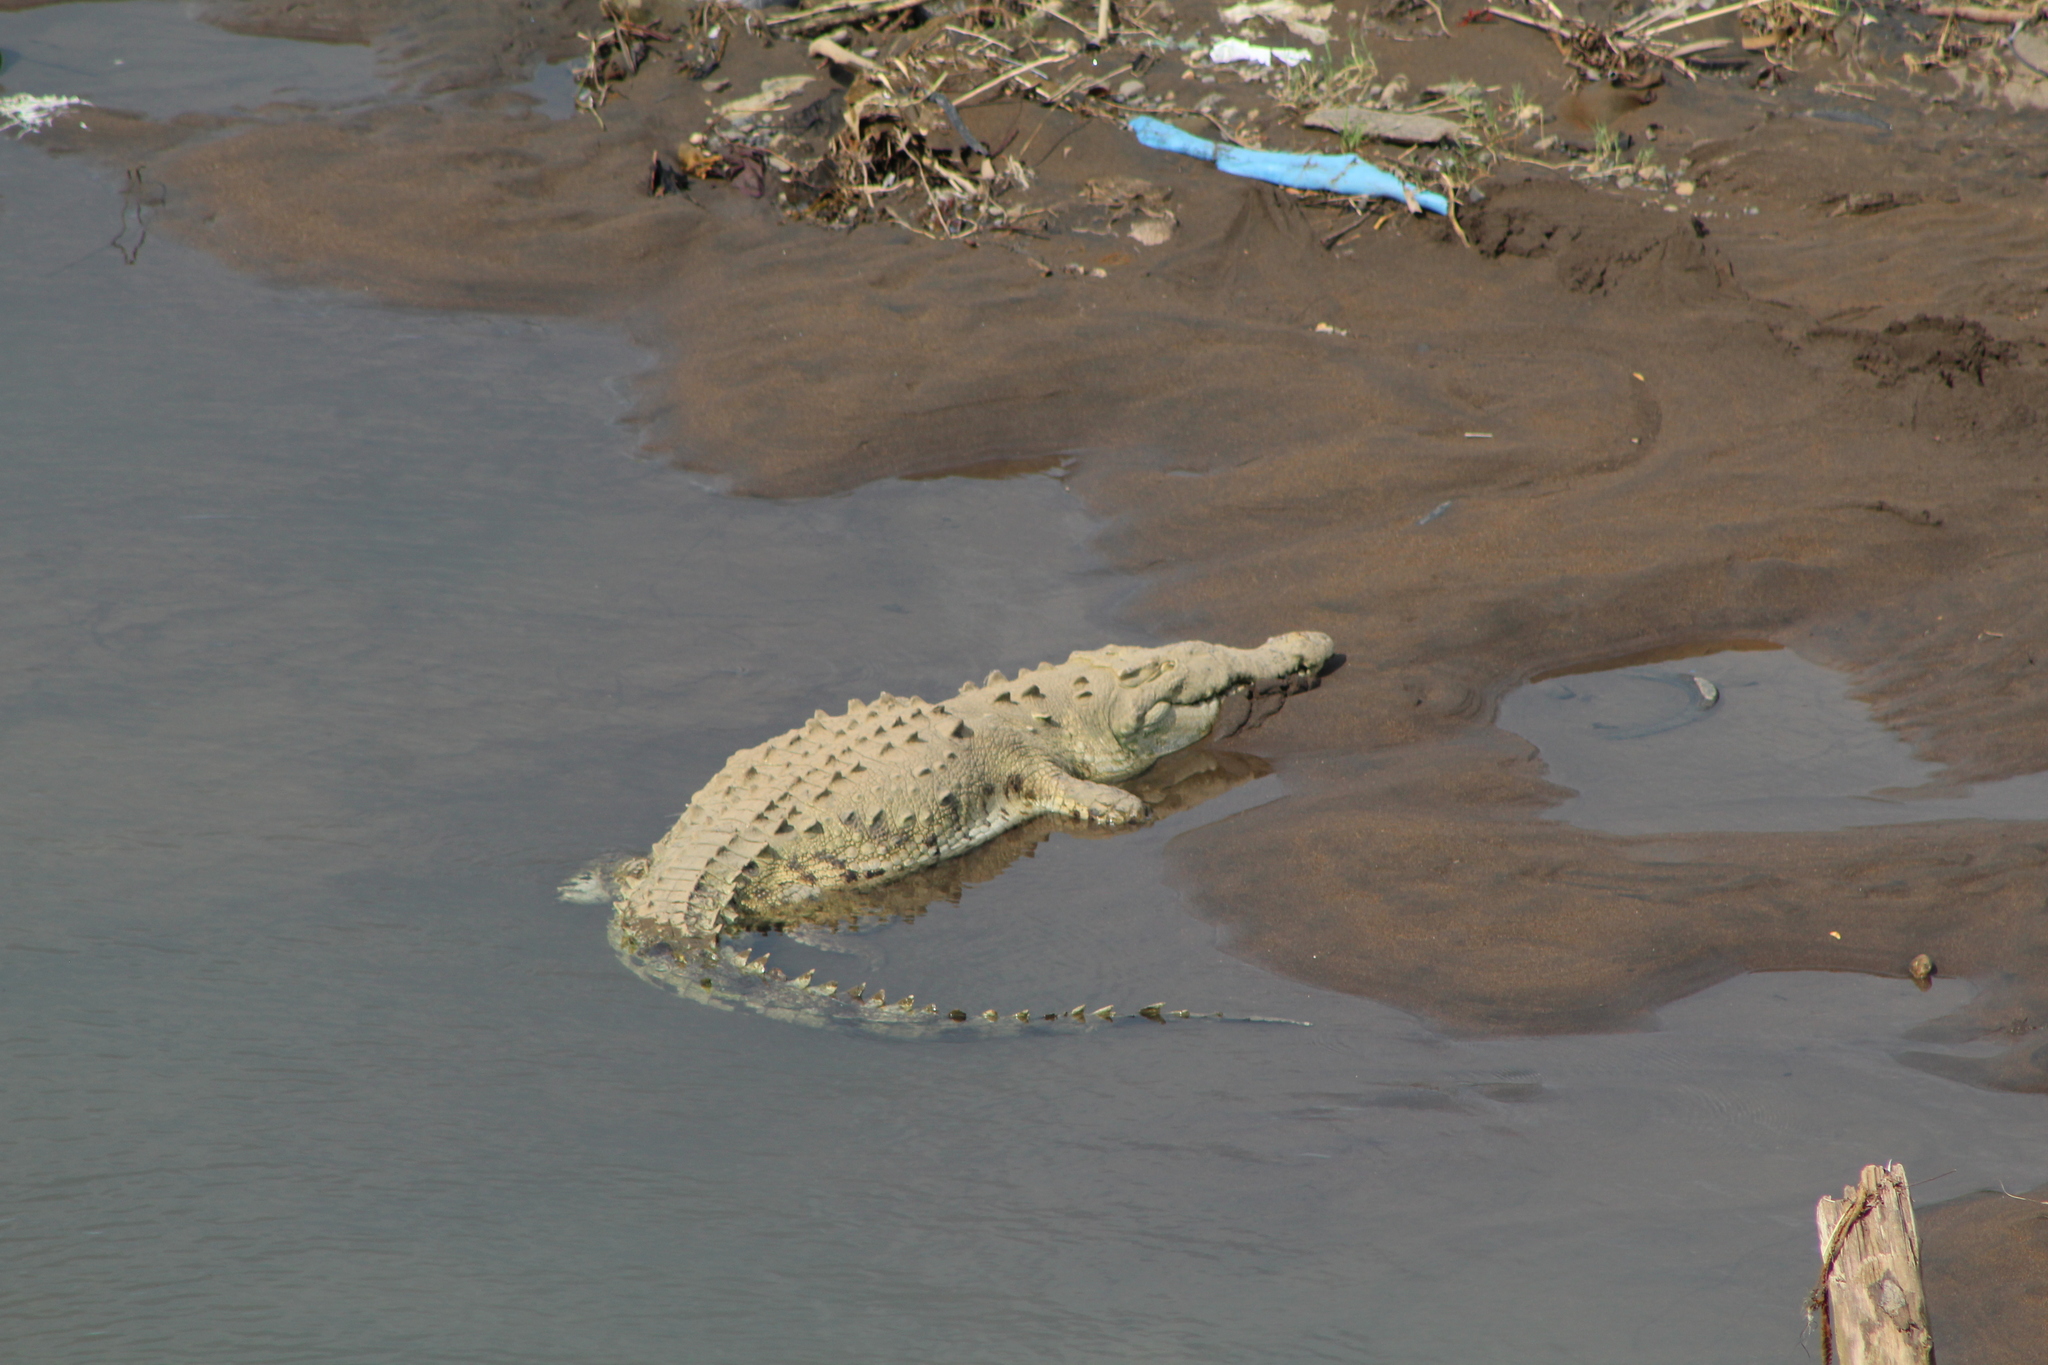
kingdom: Animalia
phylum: Chordata
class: Crocodylia
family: Crocodylidae
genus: Crocodylus
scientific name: Crocodylus acutus
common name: American crocodile
